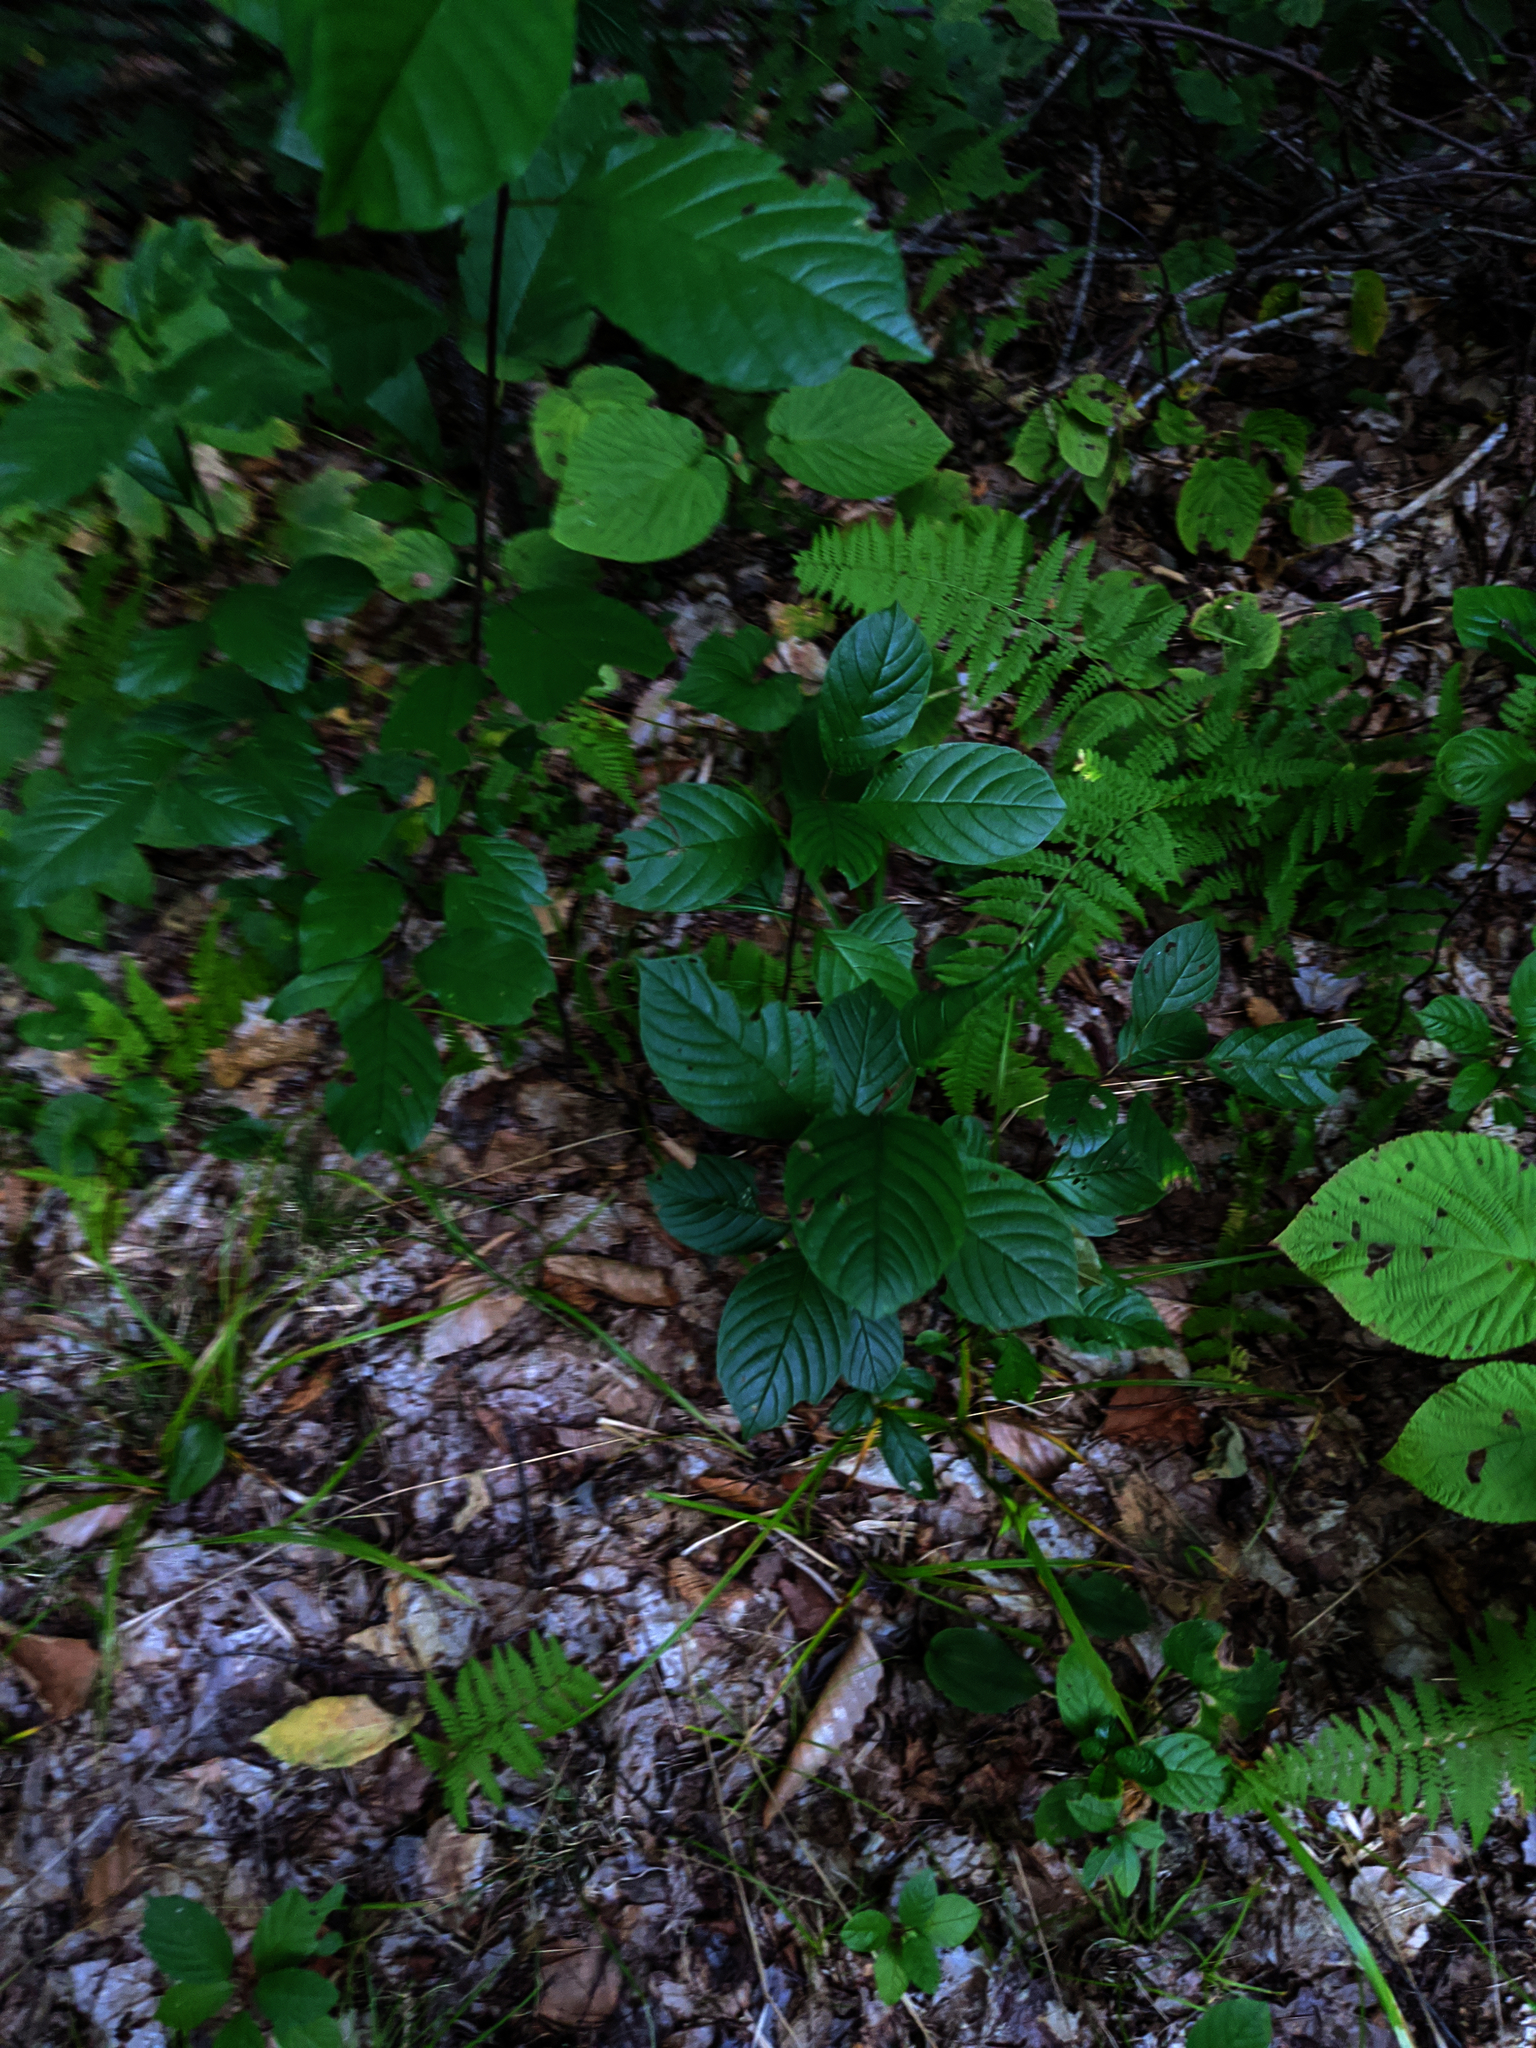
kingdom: Plantae
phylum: Tracheophyta
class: Magnoliopsida
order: Rosales
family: Rhamnaceae
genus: Frangula
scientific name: Frangula alnus
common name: Alder buckthorn
